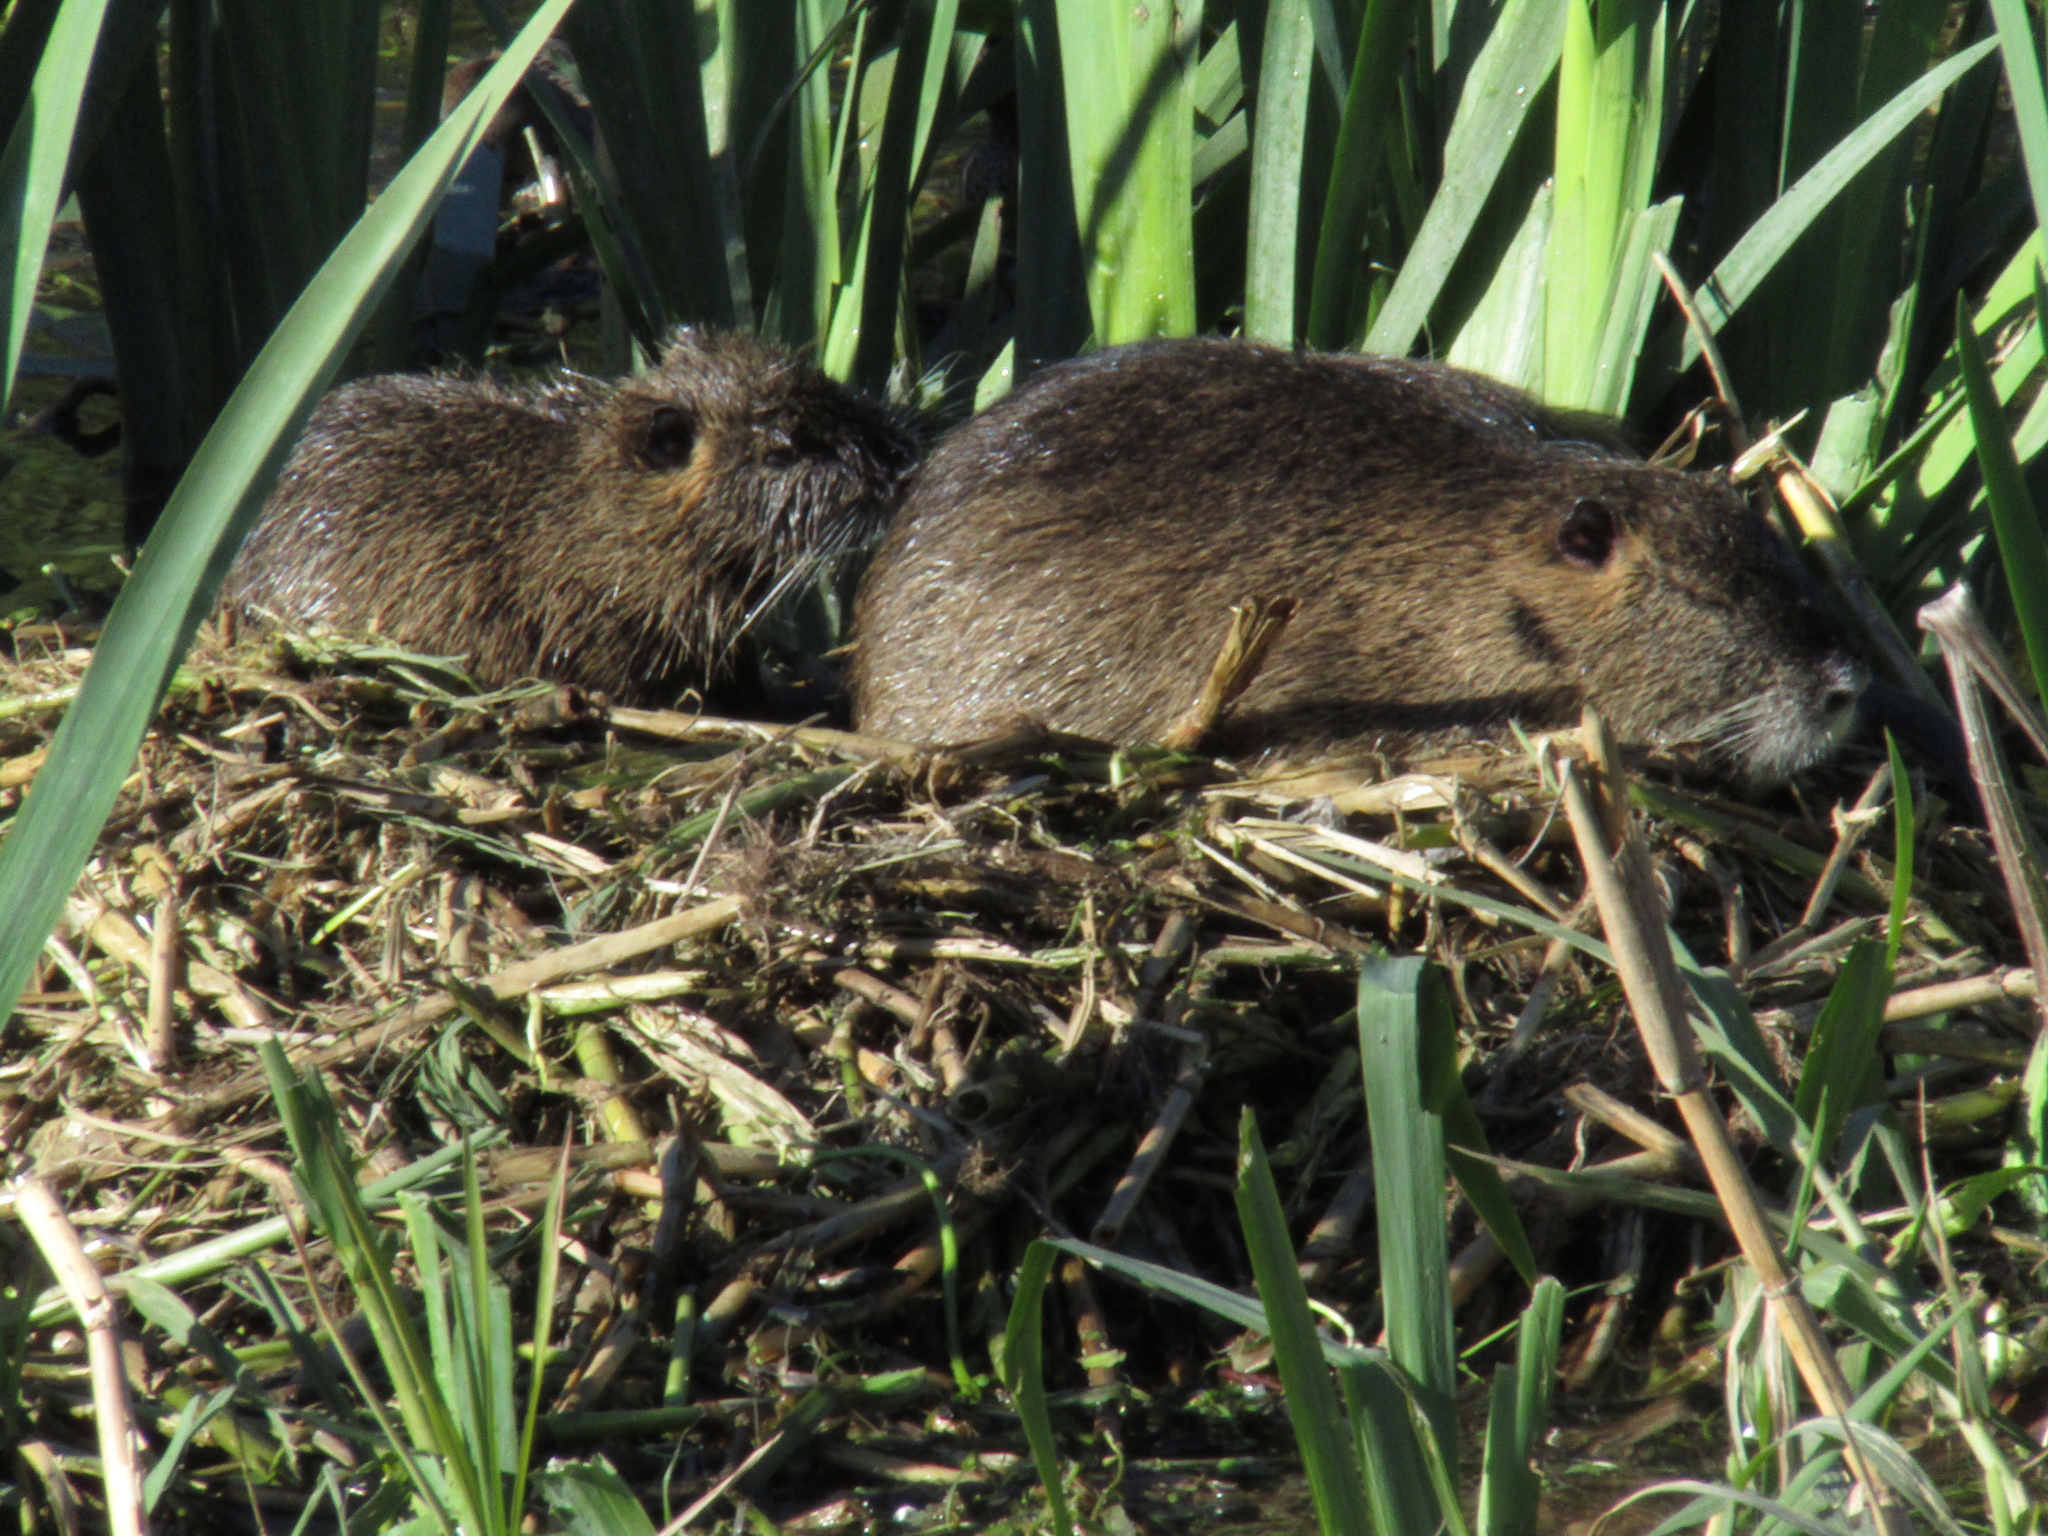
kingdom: Animalia
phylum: Chordata
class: Mammalia
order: Rodentia
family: Myocastoridae
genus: Myocastor
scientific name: Myocastor coypus
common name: Coypu
